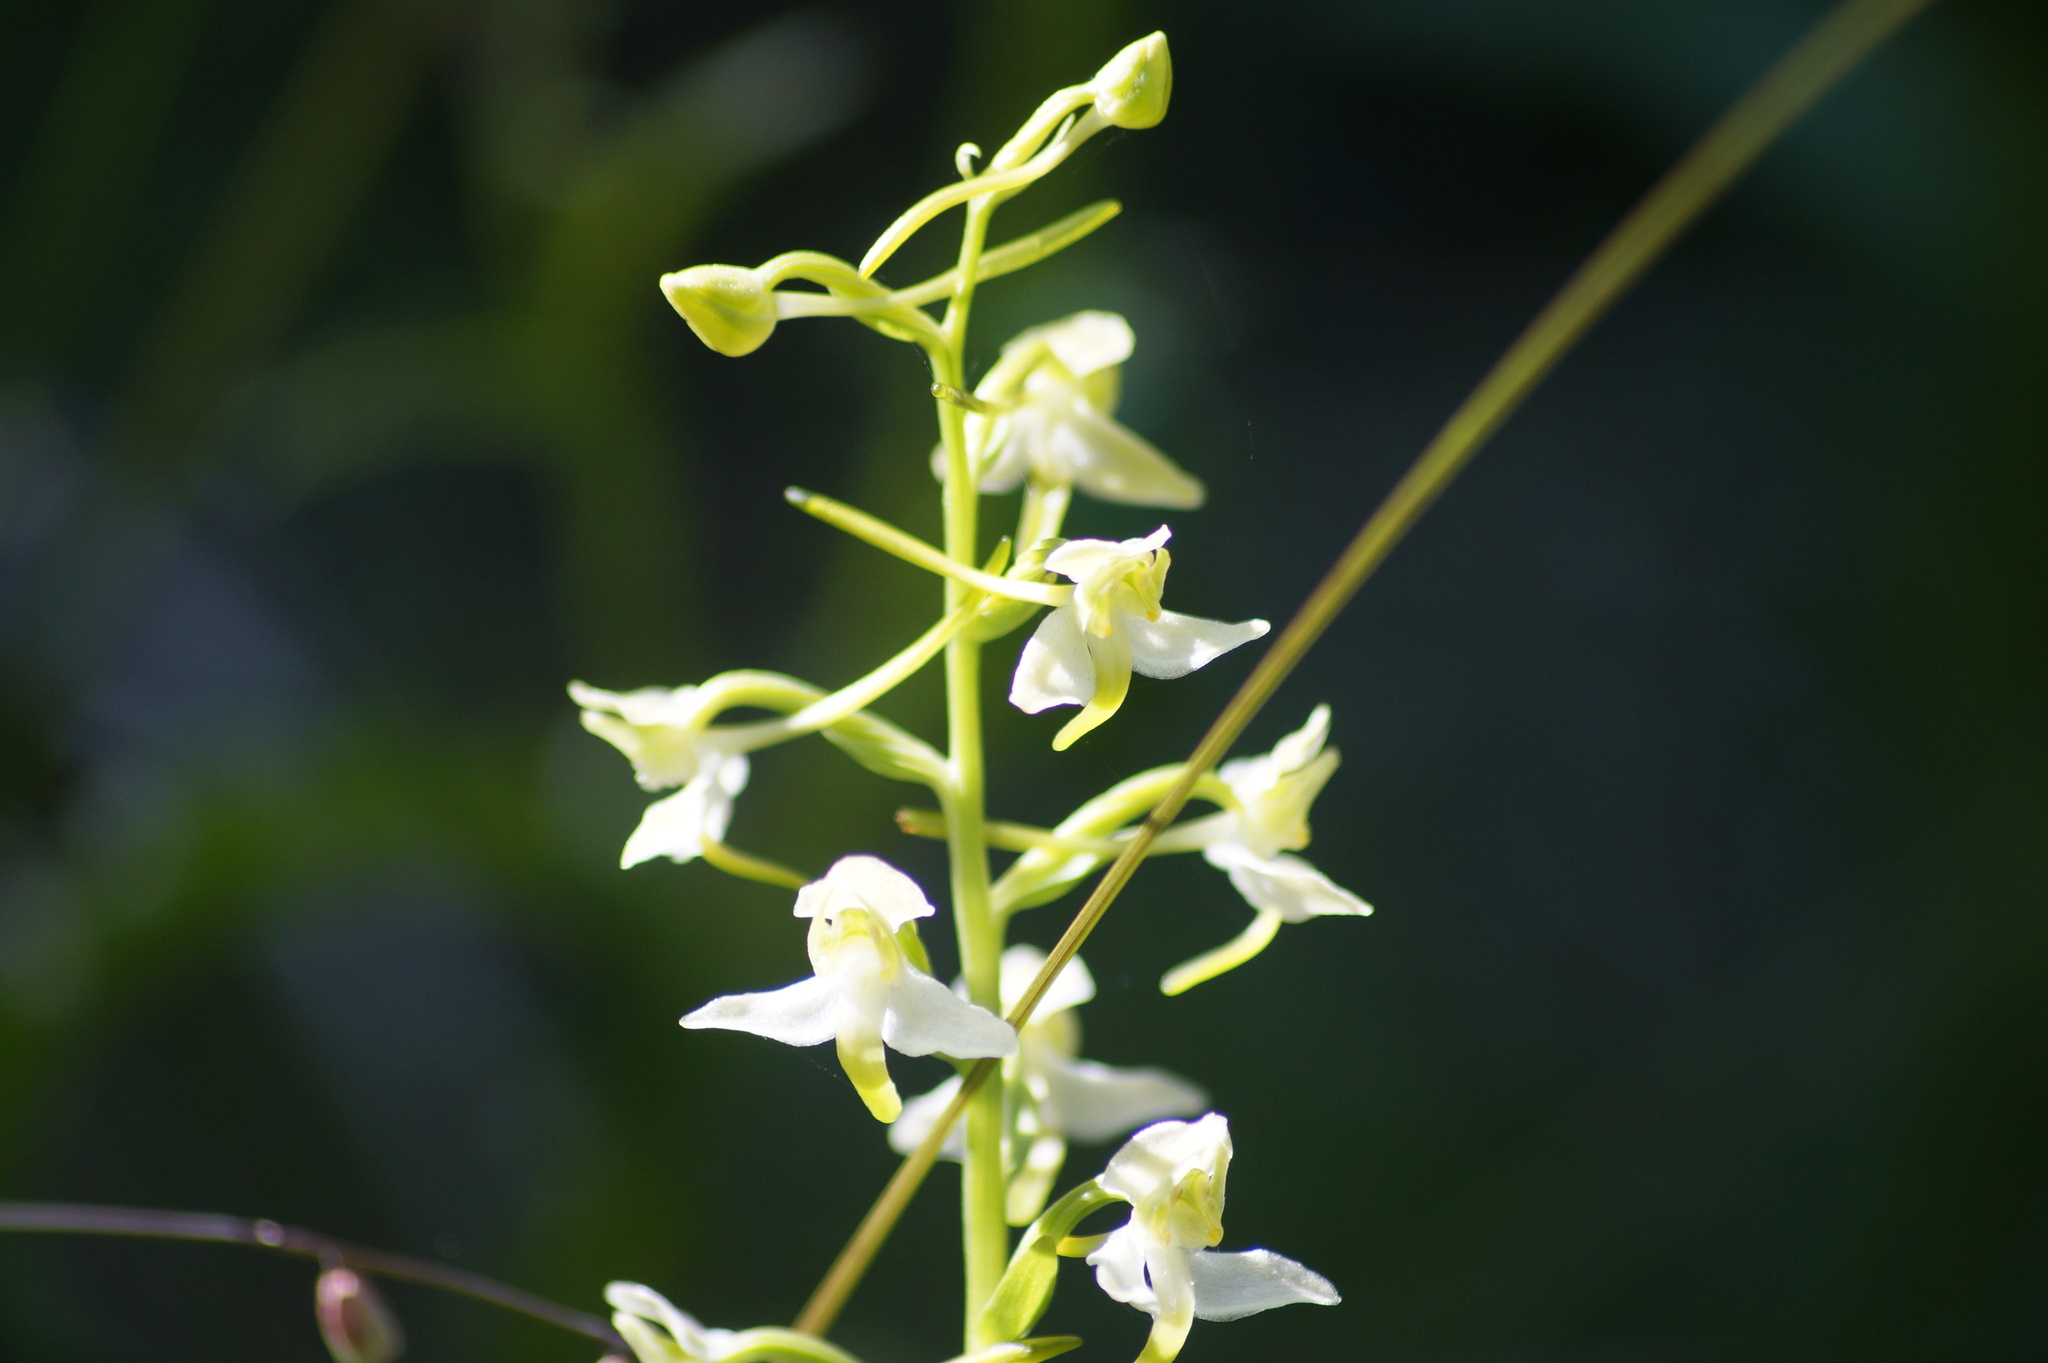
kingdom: Plantae
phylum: Tracheophyta
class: Liliopsida
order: Asparagales
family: Orchidaceae
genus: Platanthera
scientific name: Platanthera chlorantha
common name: Greater butterfly-orchid
